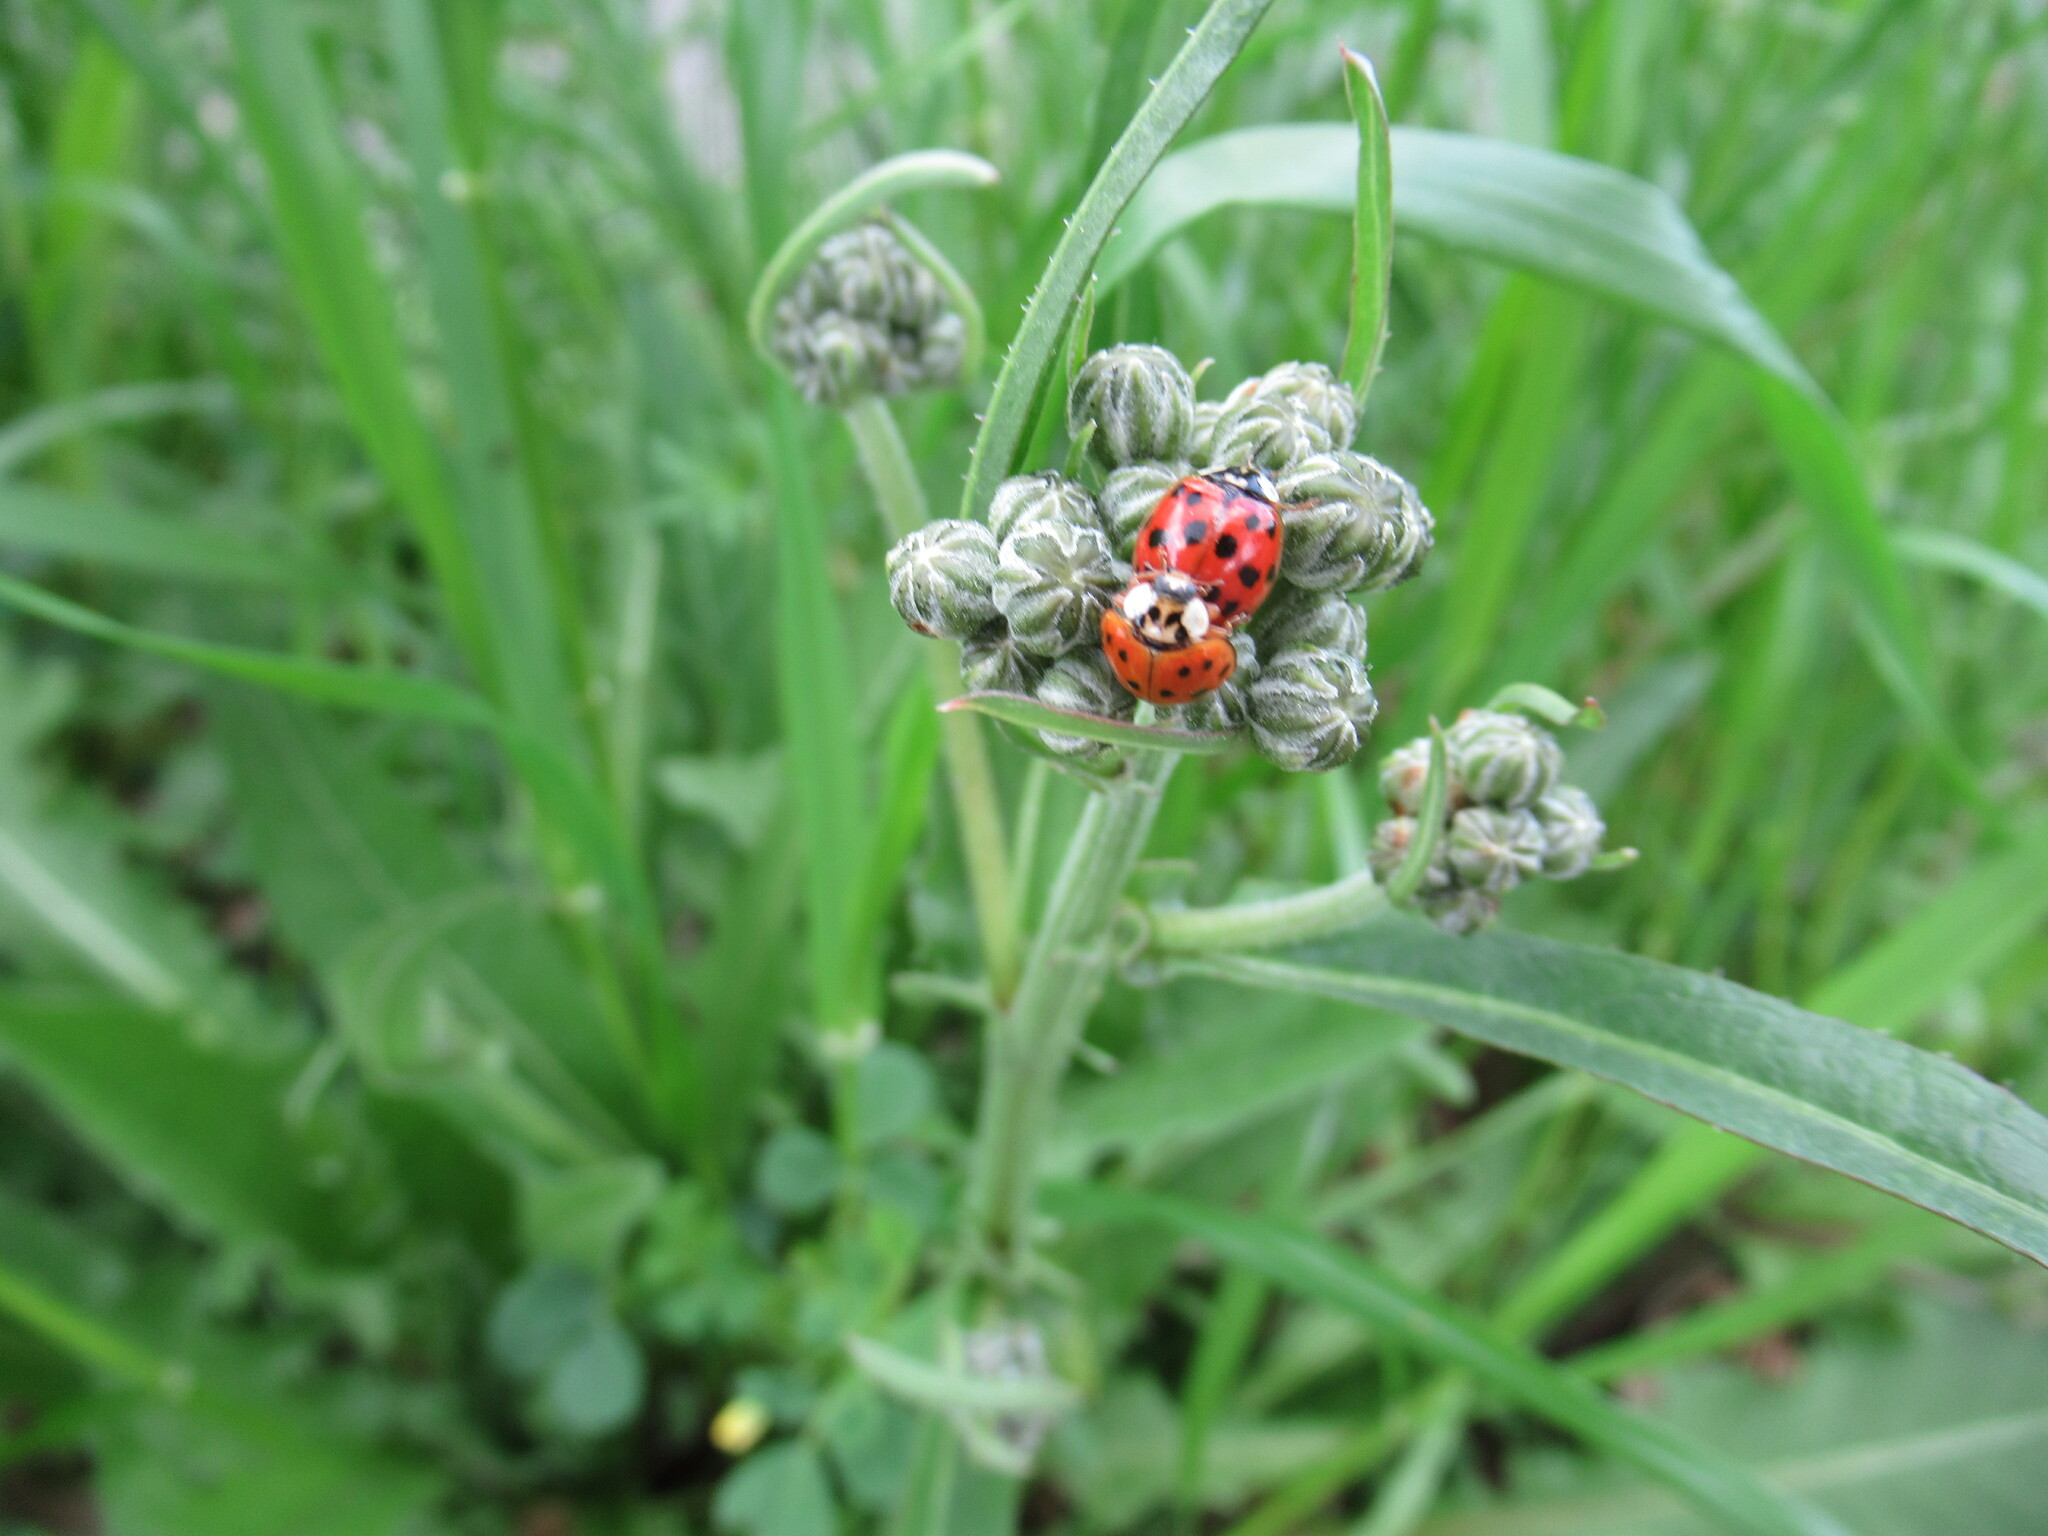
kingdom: Animalia
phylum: Arthropoda
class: Insecta
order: Coleoptera
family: Coccinellidae
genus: Harmonia
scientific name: Harmonia axyridis
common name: Harlequin ladybird
